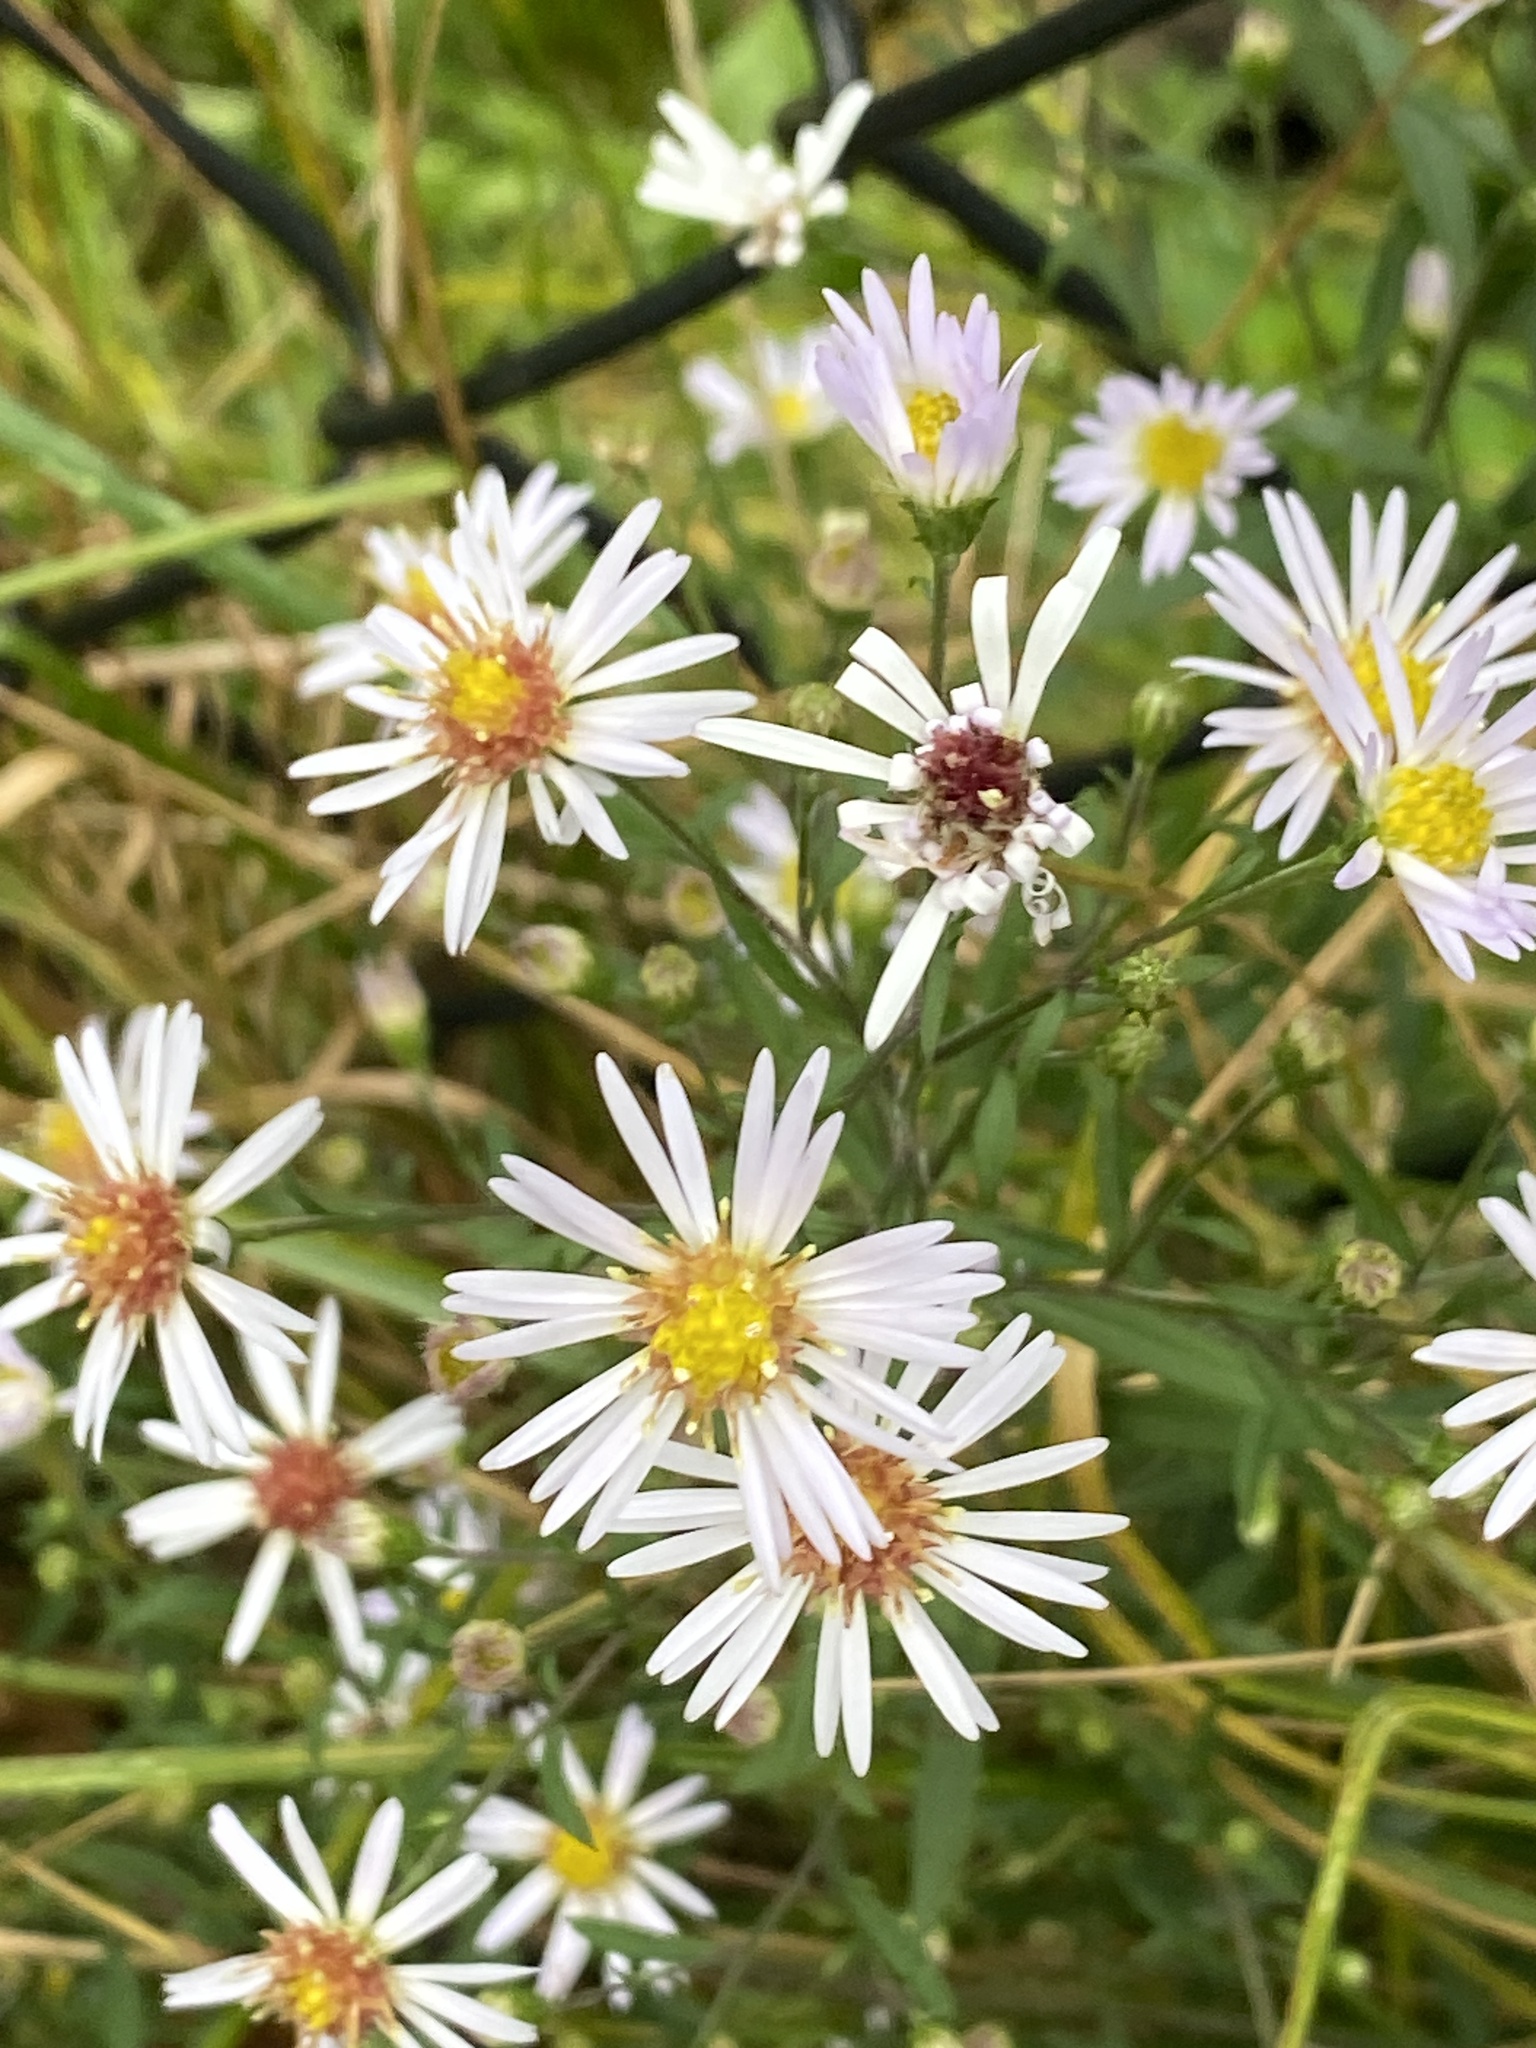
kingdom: Plantae
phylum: Tracheophyta
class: Magnoliopsida
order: Asterales
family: Asteraceae
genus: Symphyotrichum
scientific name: Symphyotrichum lanceolatum
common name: Panicled aster
